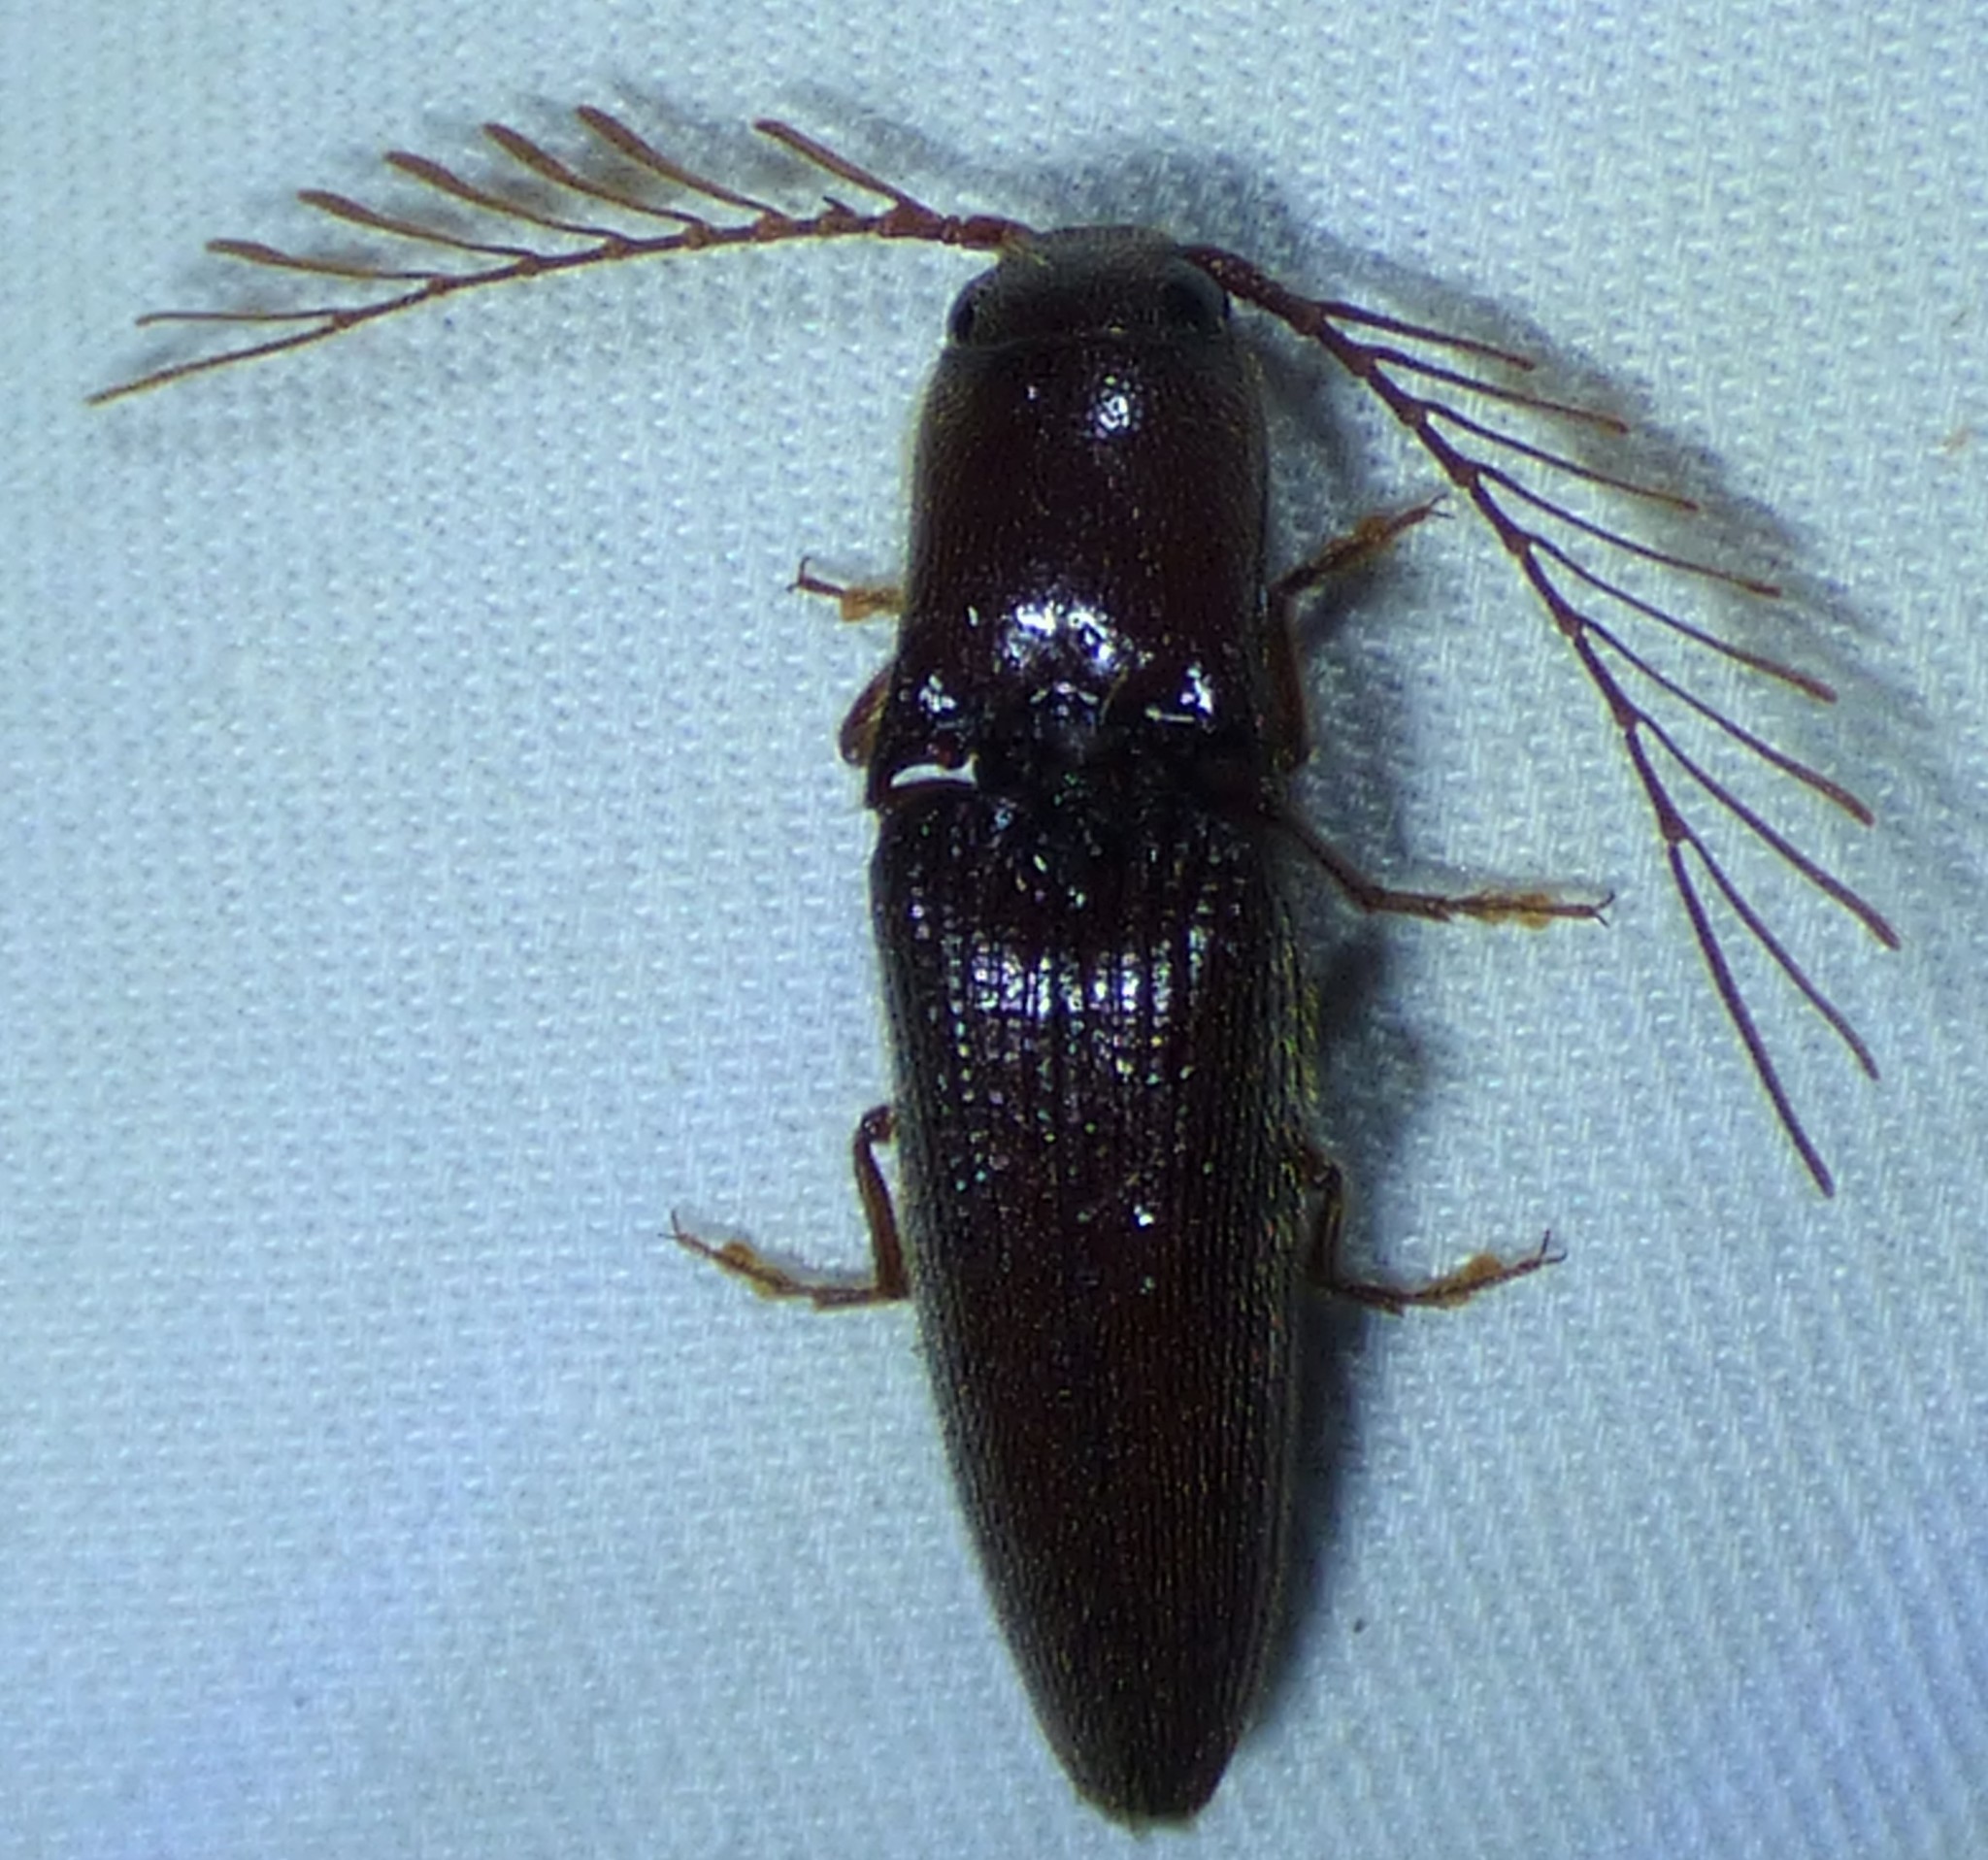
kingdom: Animalia
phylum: Arthropoda
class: Insecta
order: Coleoptera
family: Elateridae
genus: Dicrepidius
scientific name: Dicrepidius palmatus
